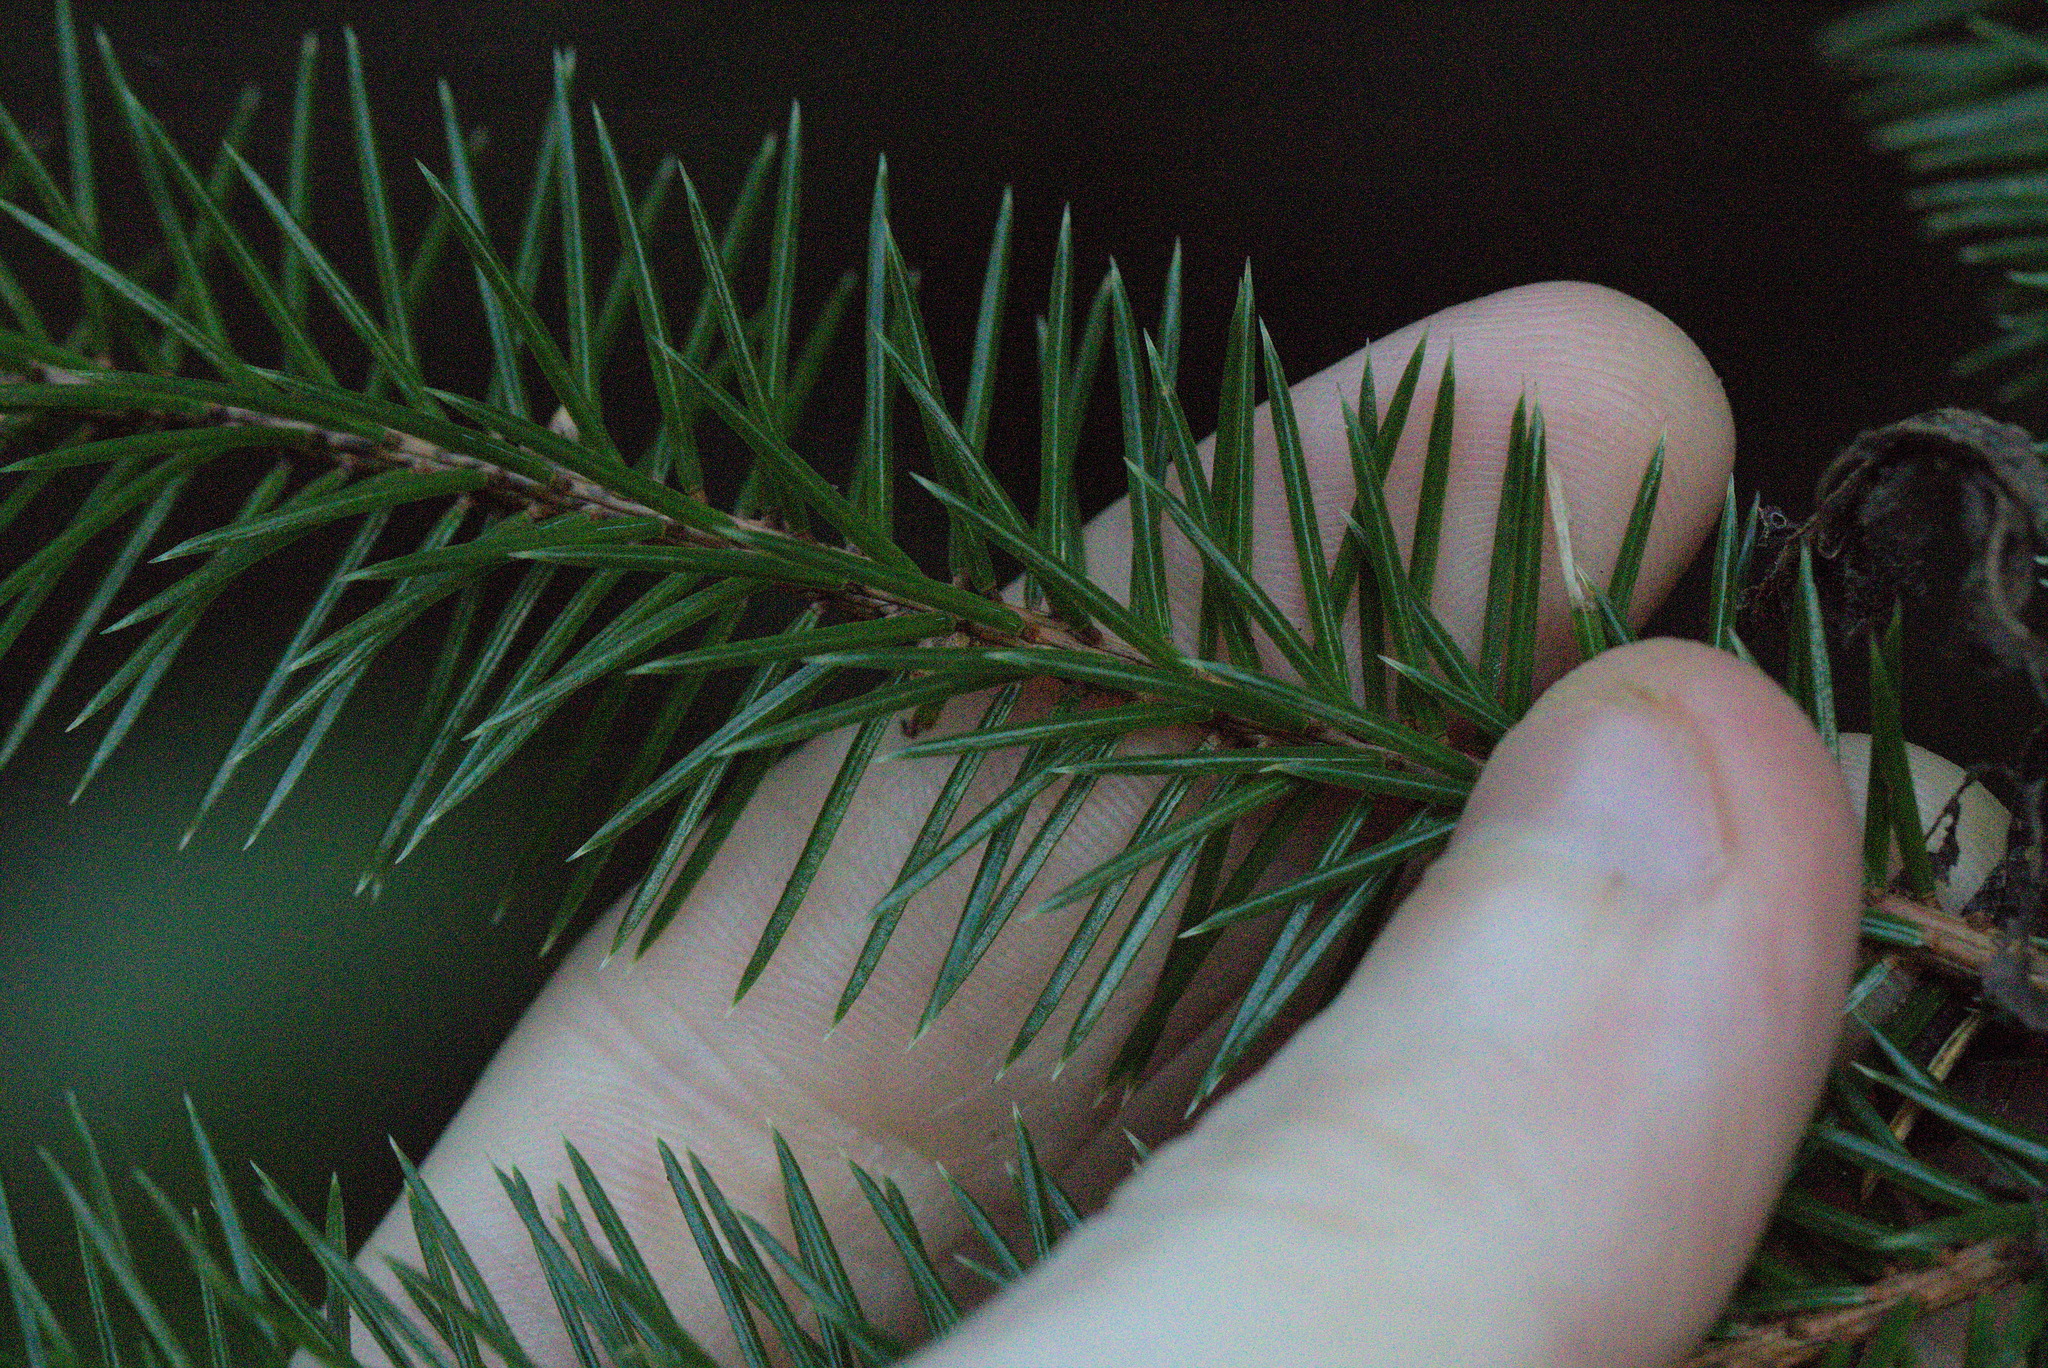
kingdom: Plantae
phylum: Tracheophyta
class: Pinopsida
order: Pinales
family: Pinaceae
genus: Picea
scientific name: Picea sitchensis
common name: Sitka spruce
